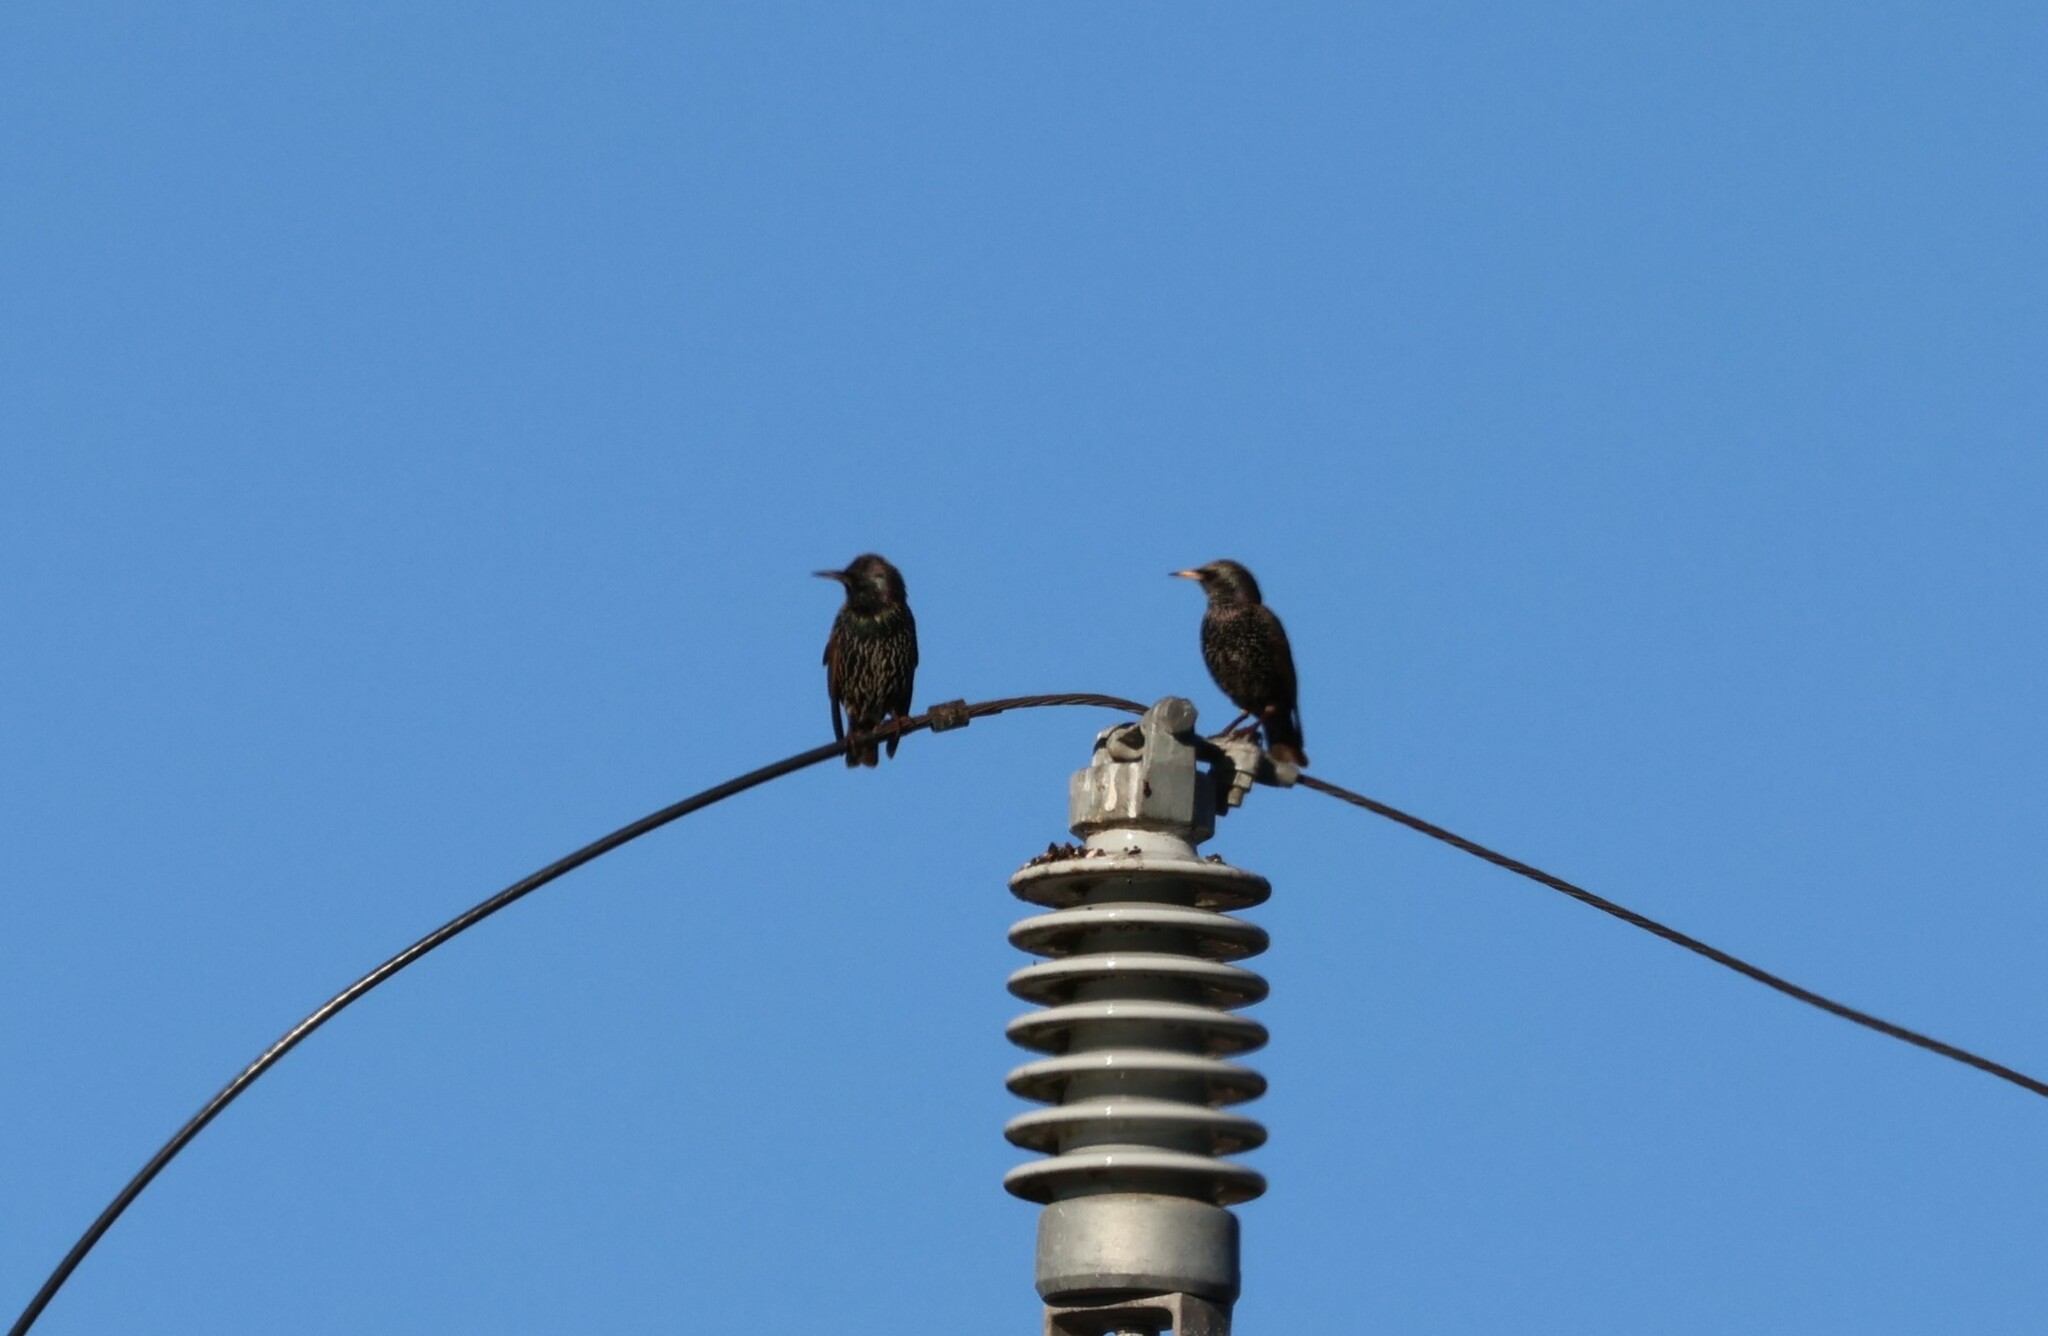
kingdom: Animalia
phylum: Chordata
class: Aves
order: Passeriformes
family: Sturnidae
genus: Sturnus
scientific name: Sturnus vulgaris
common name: Common starling
